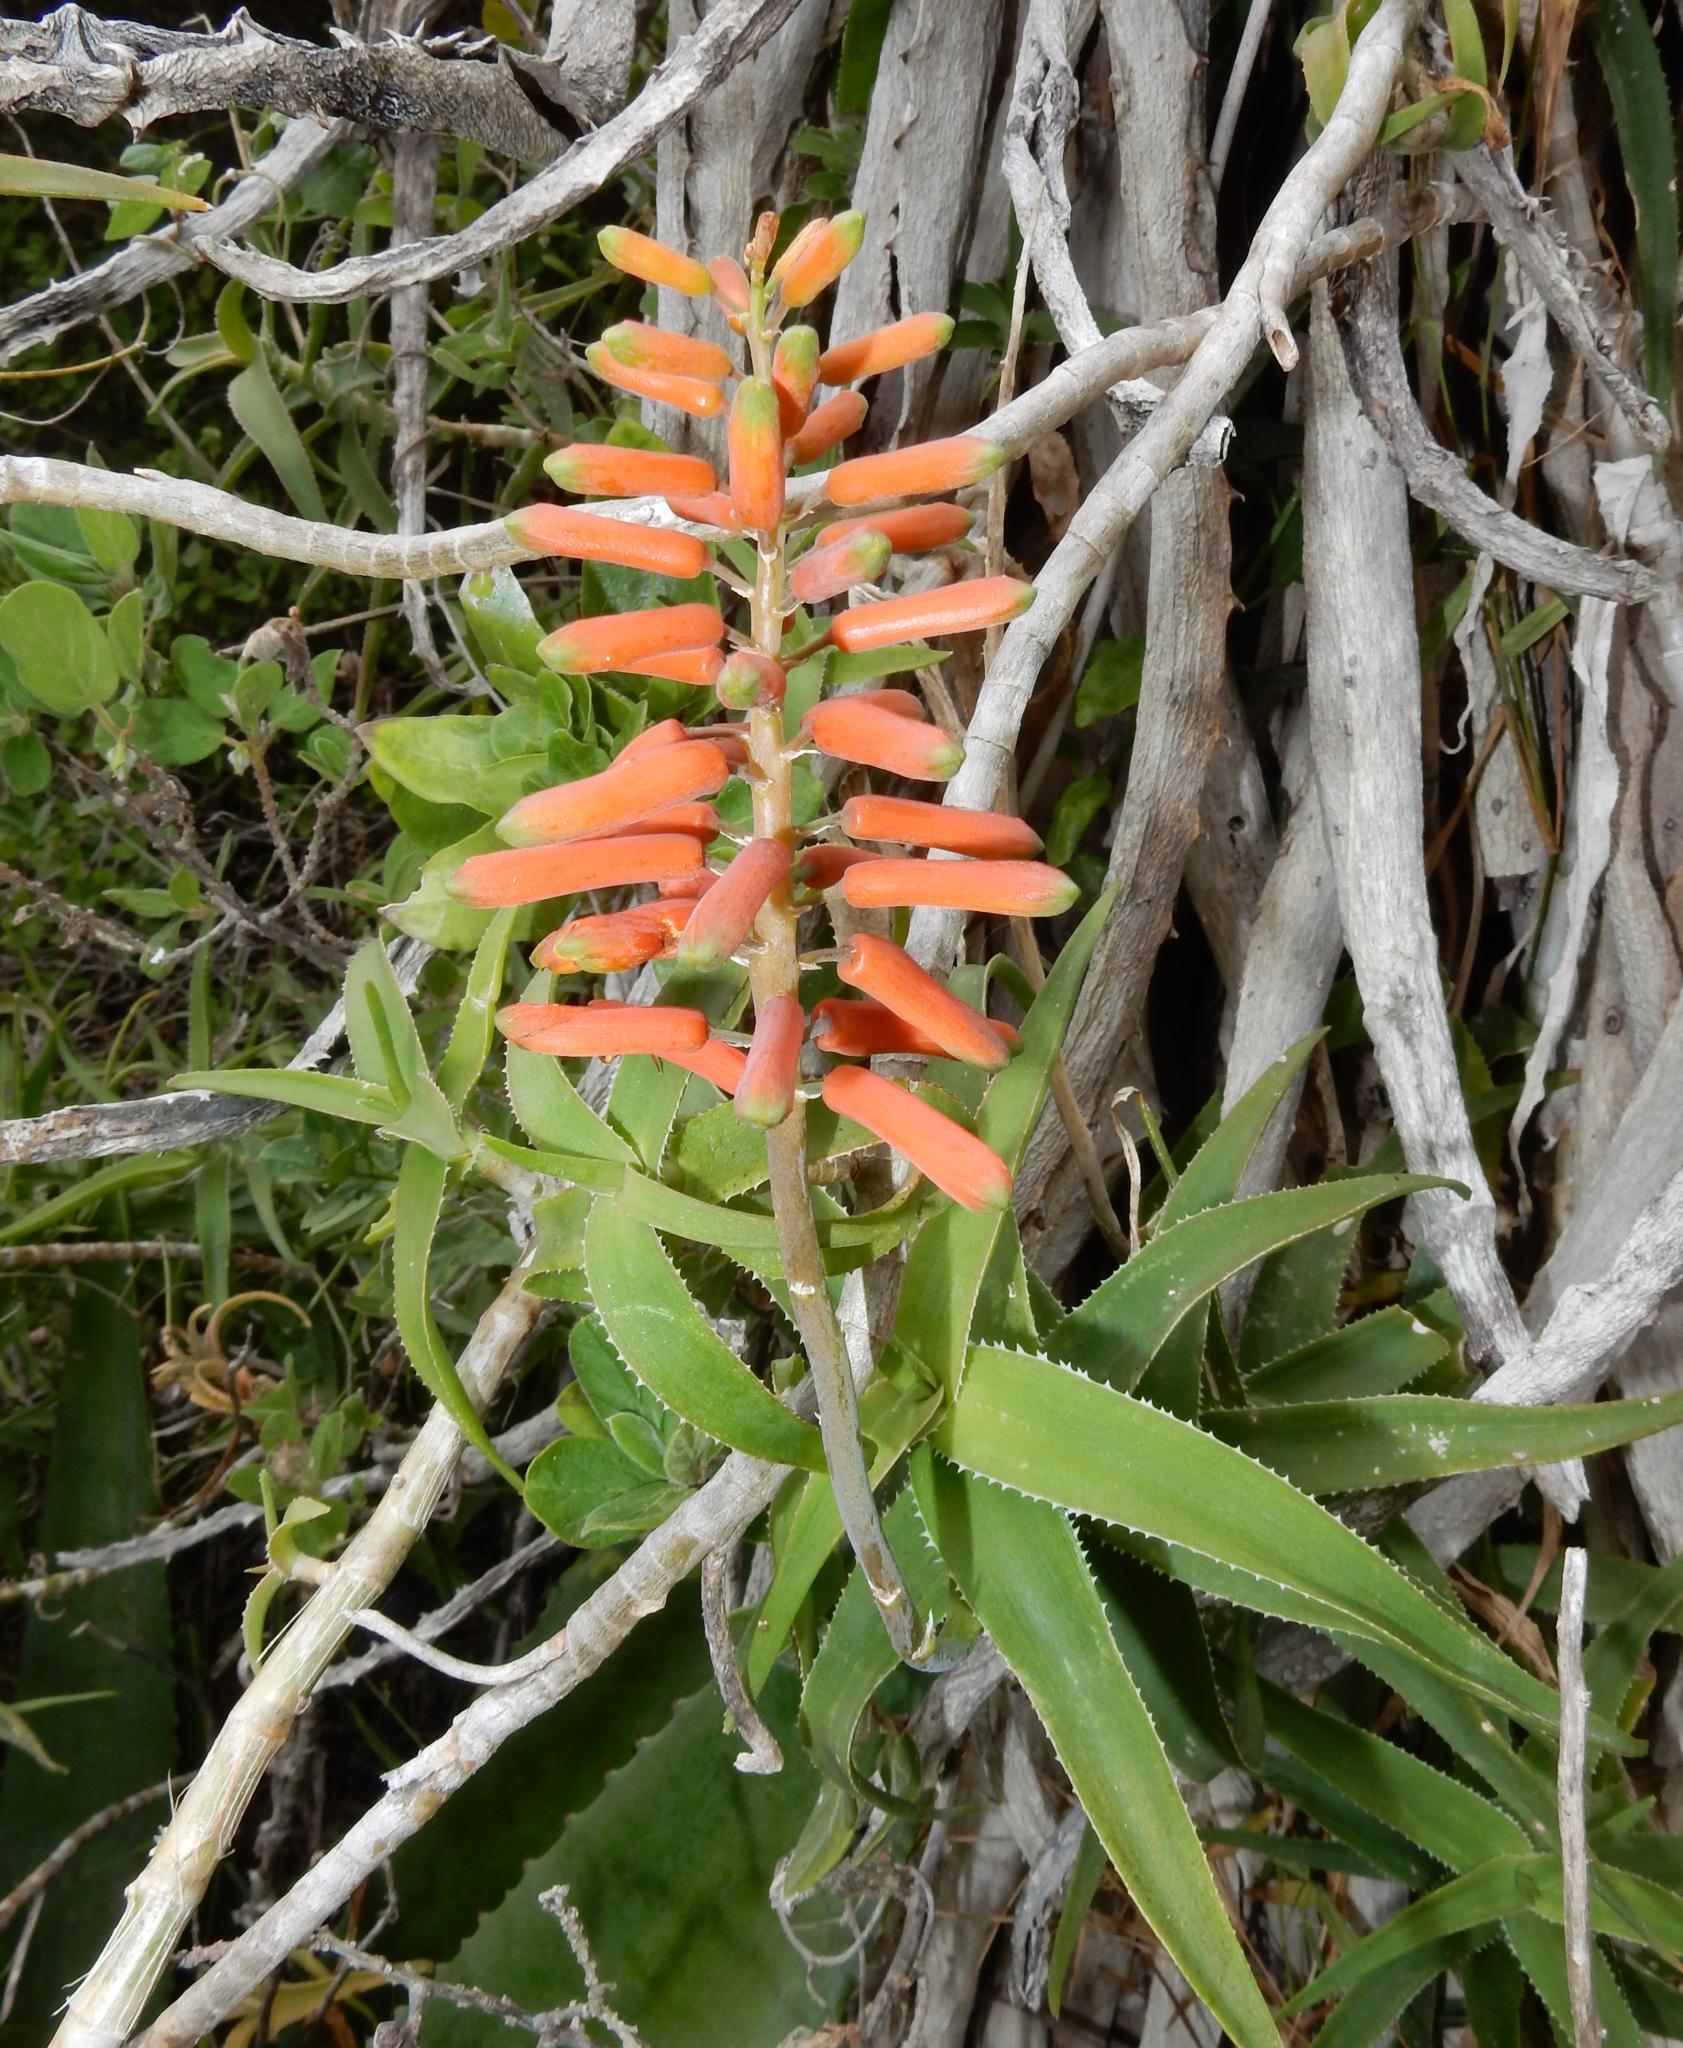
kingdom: Plantae
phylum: Tracheophyta
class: Liliopsida
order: Asparagales
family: Asphodelaceae
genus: Aloiampelos
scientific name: Aloiampelos ciliaris
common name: Climbing aloe
